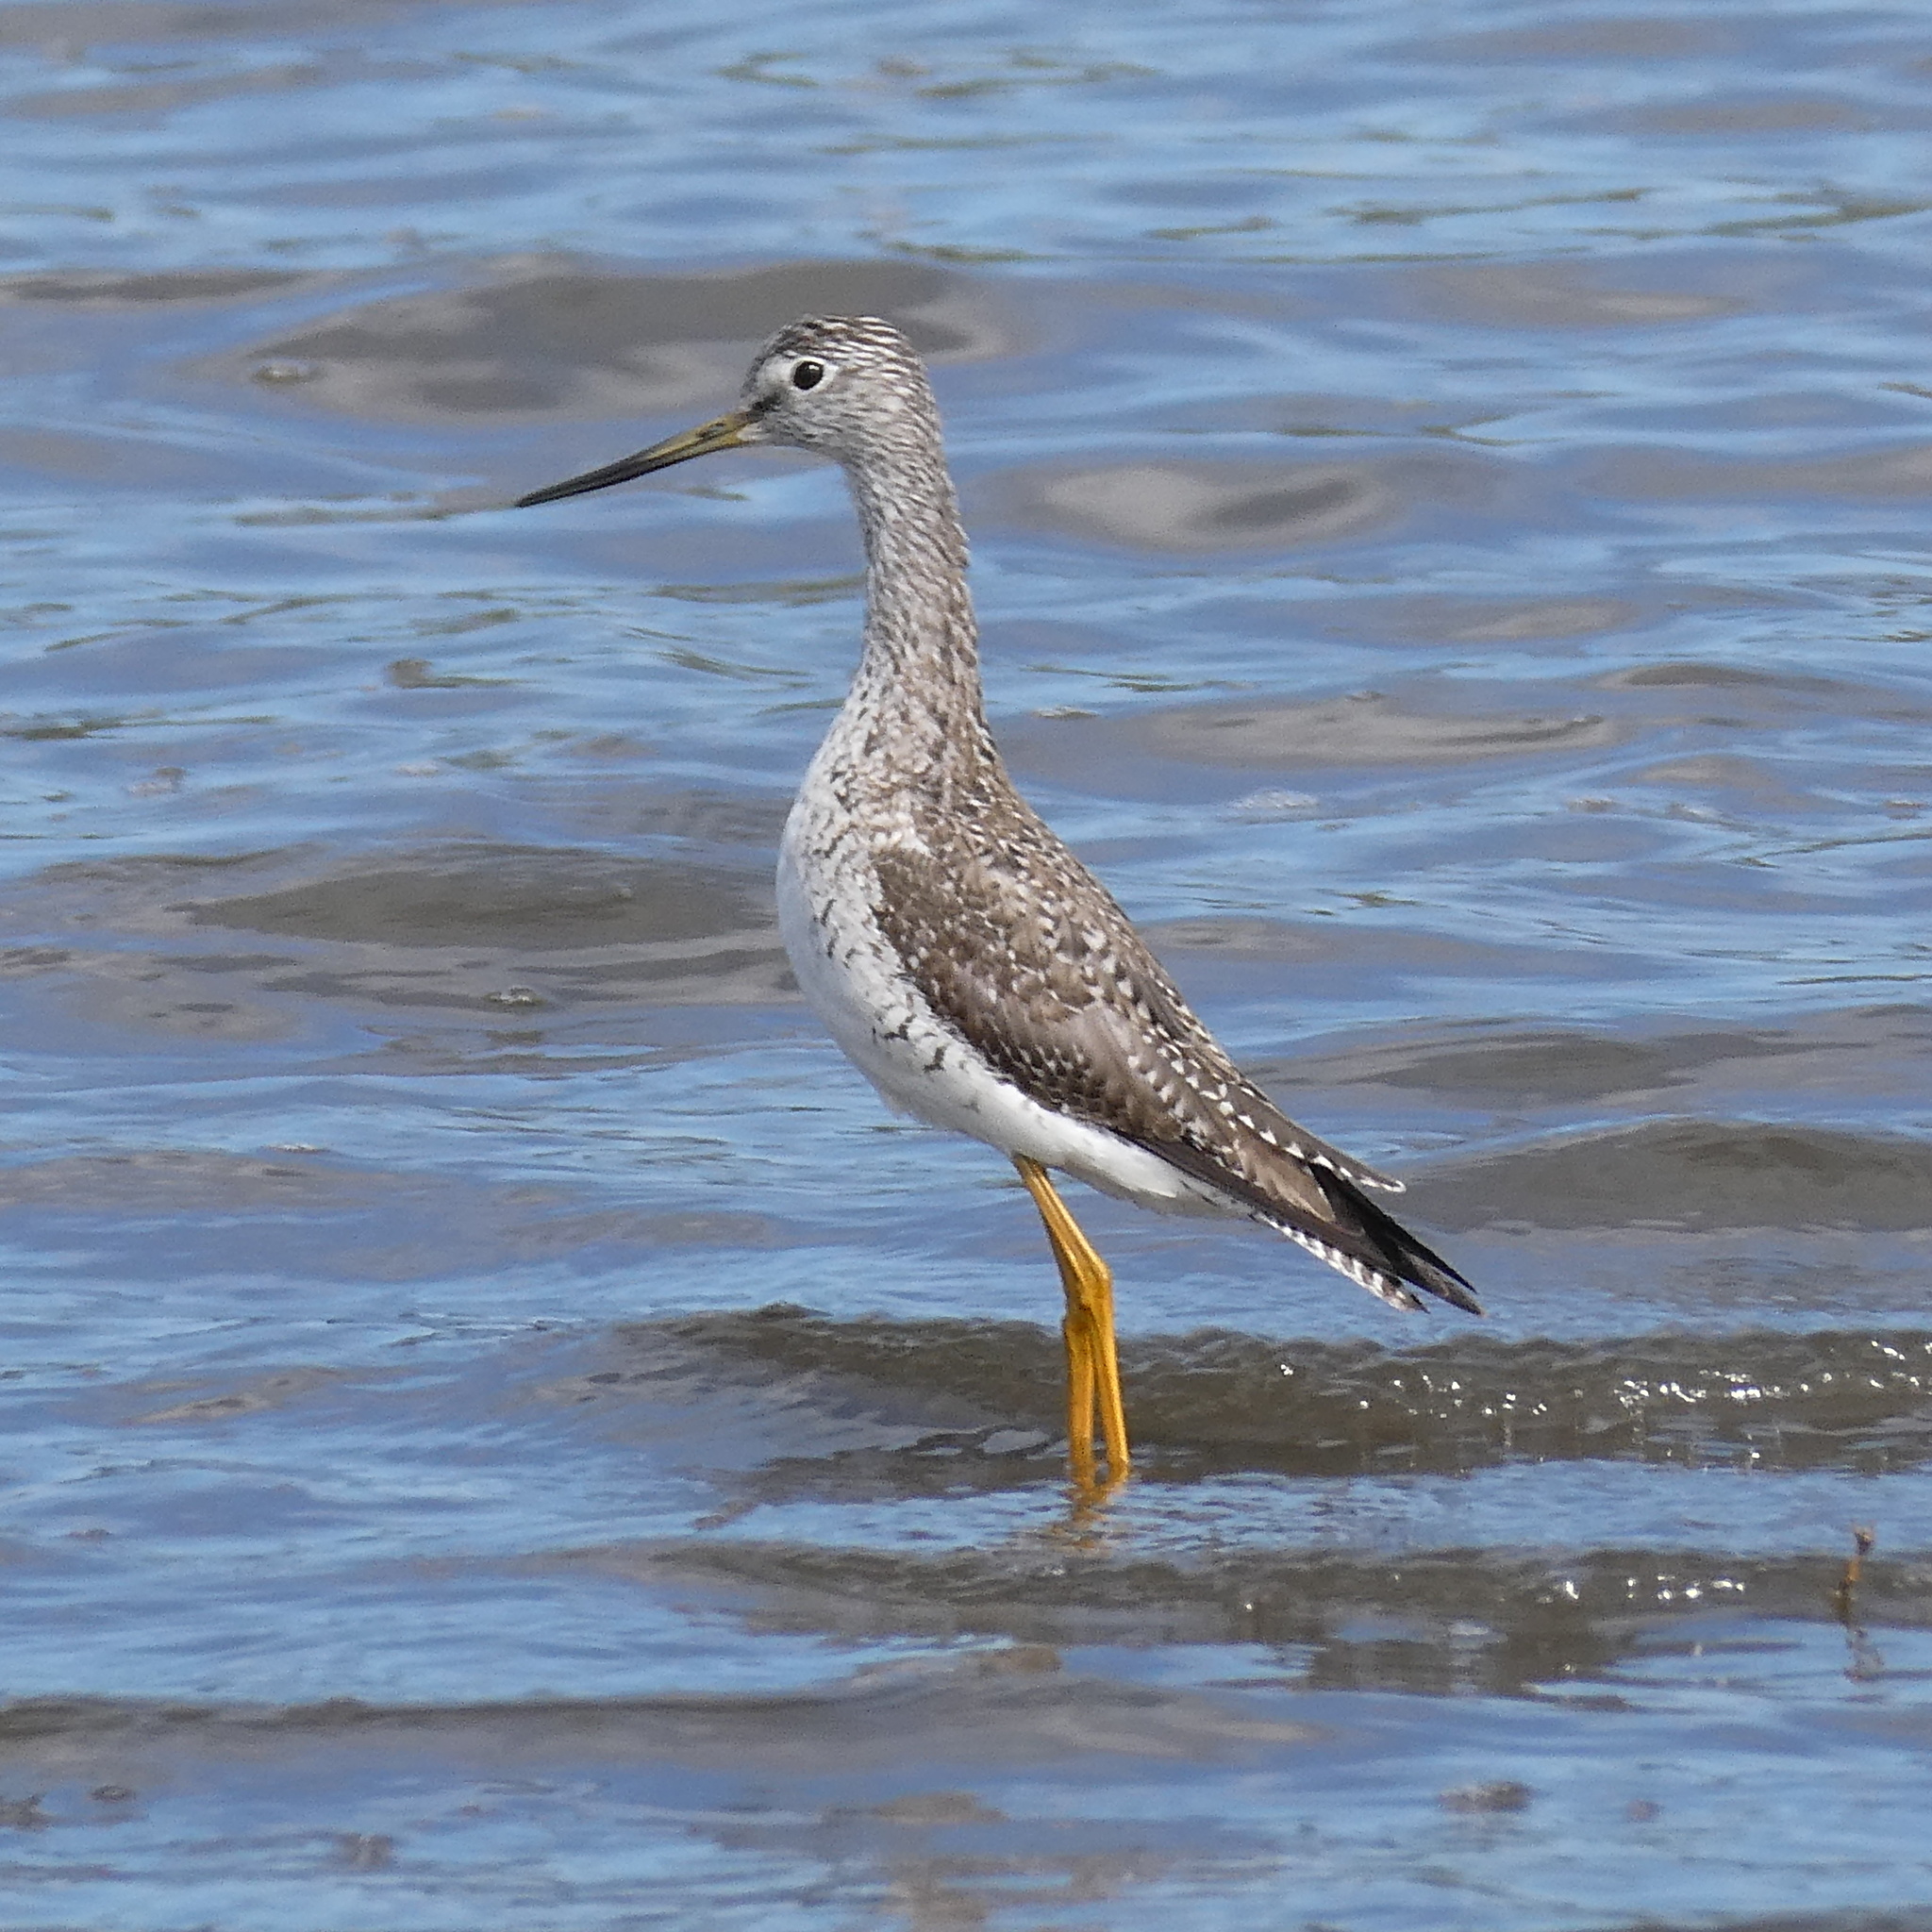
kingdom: Animalia
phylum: Chordata
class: Aves
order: Charadriiformes
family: Scolopacidae
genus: Tringa
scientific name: Tringa melanoleuca
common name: Greater yellowlegs
